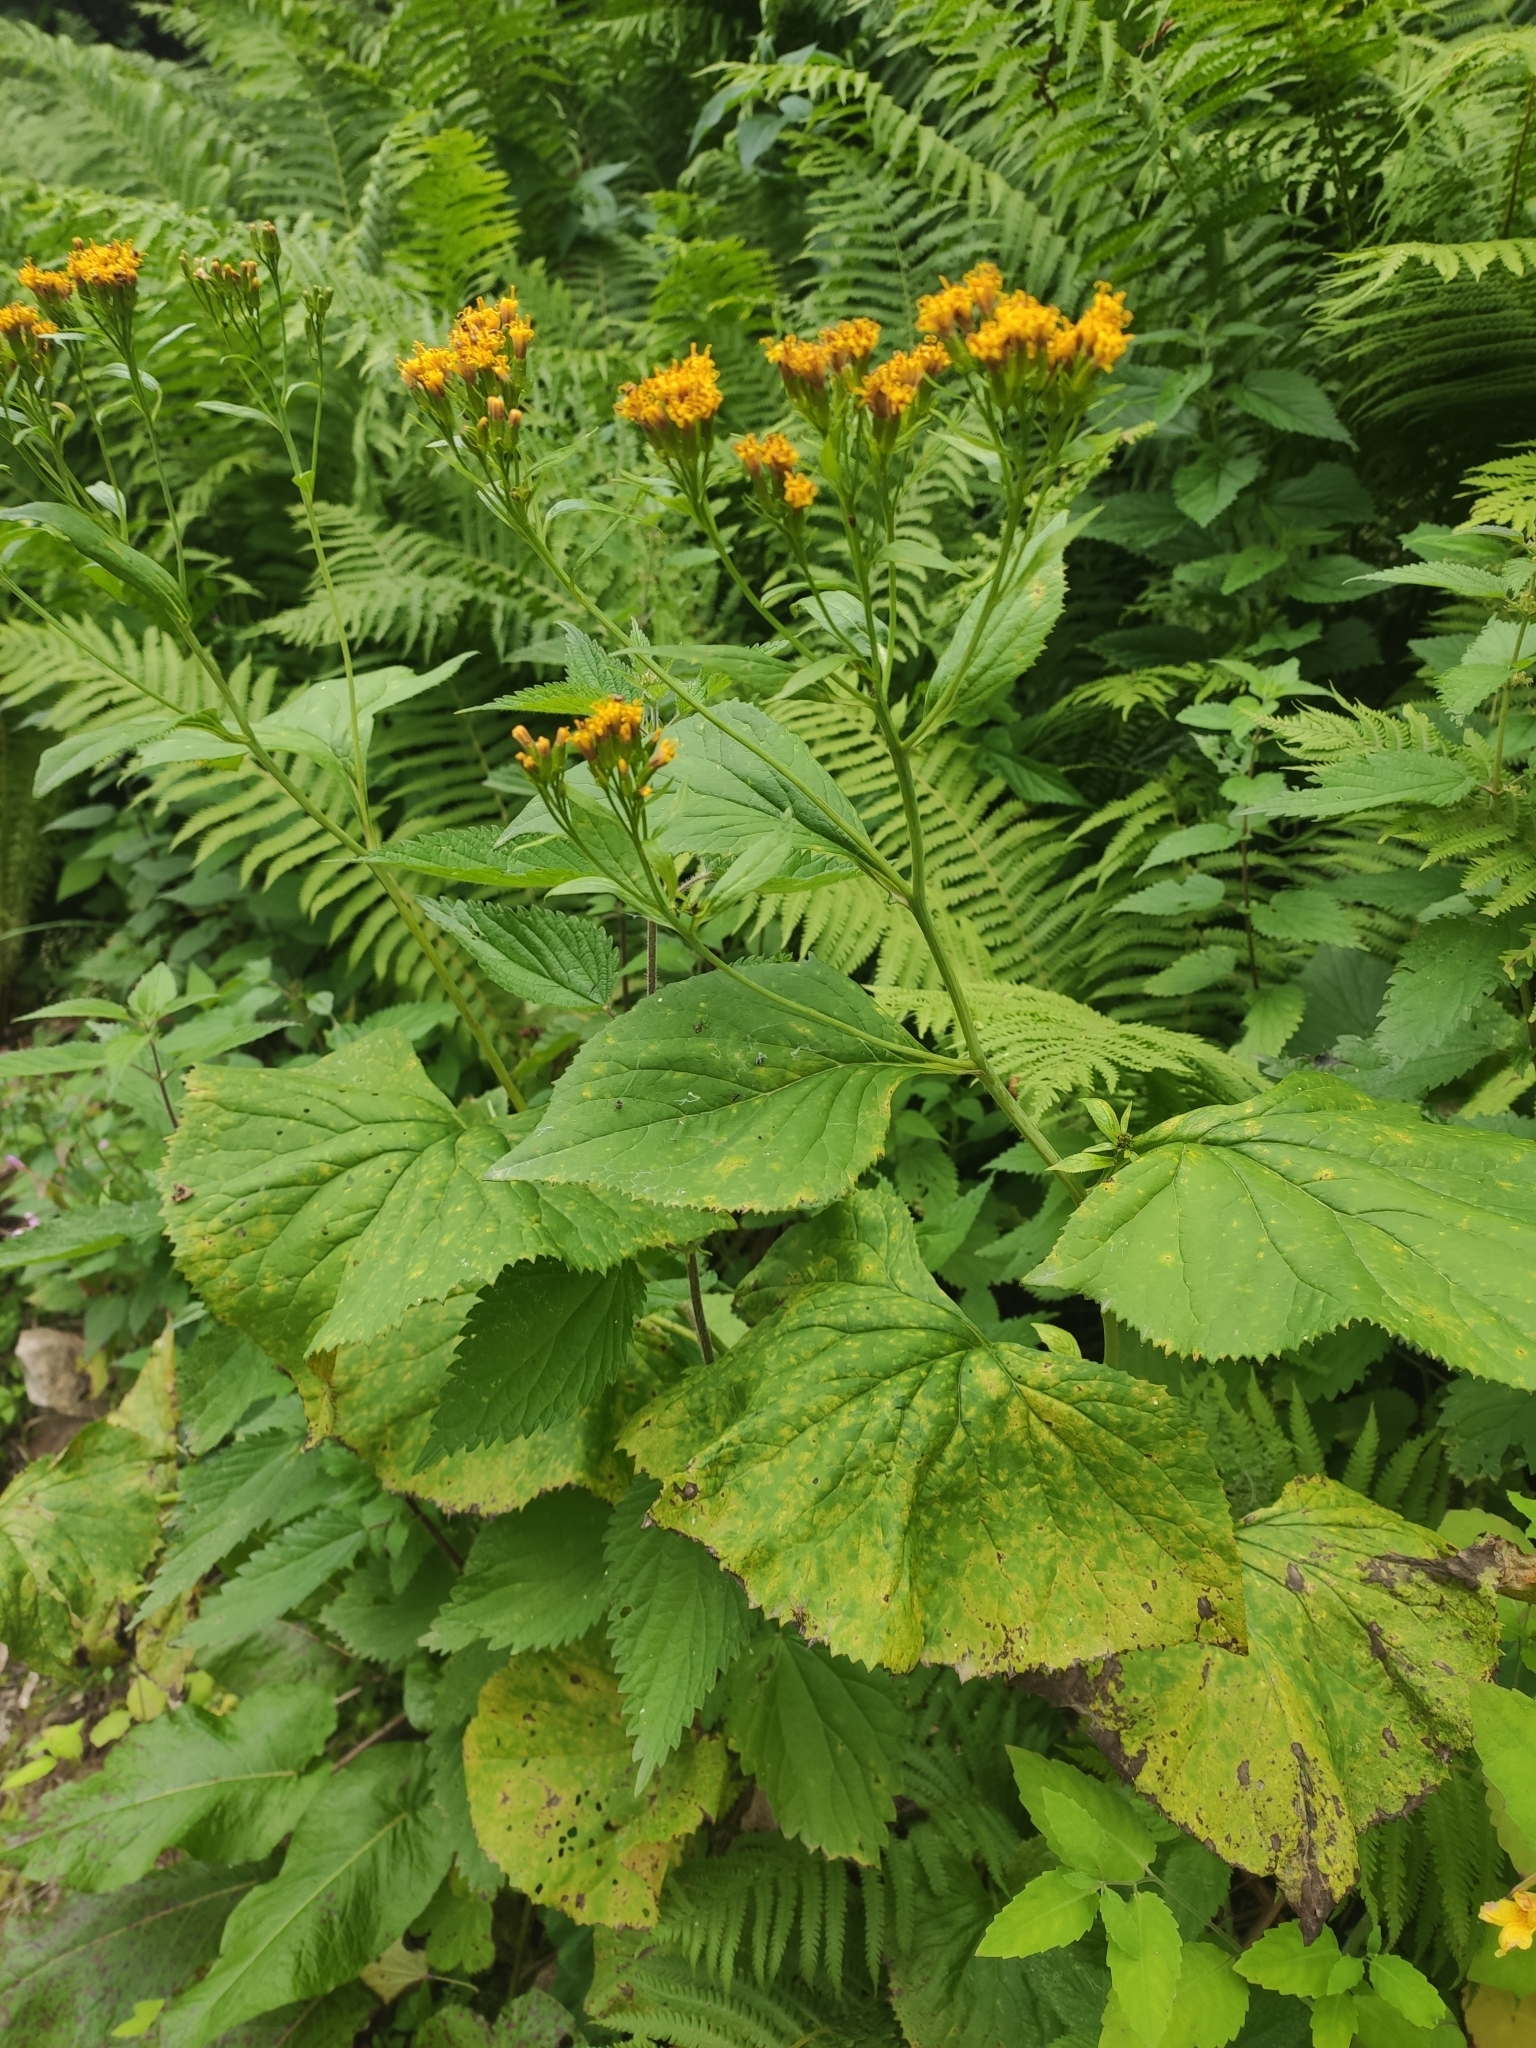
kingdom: Plantae
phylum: Tracheophyta
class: Magnoliopsida
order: Asterales
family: Asteraceae
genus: Caucasalia
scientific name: Caucasalia macrophylla
